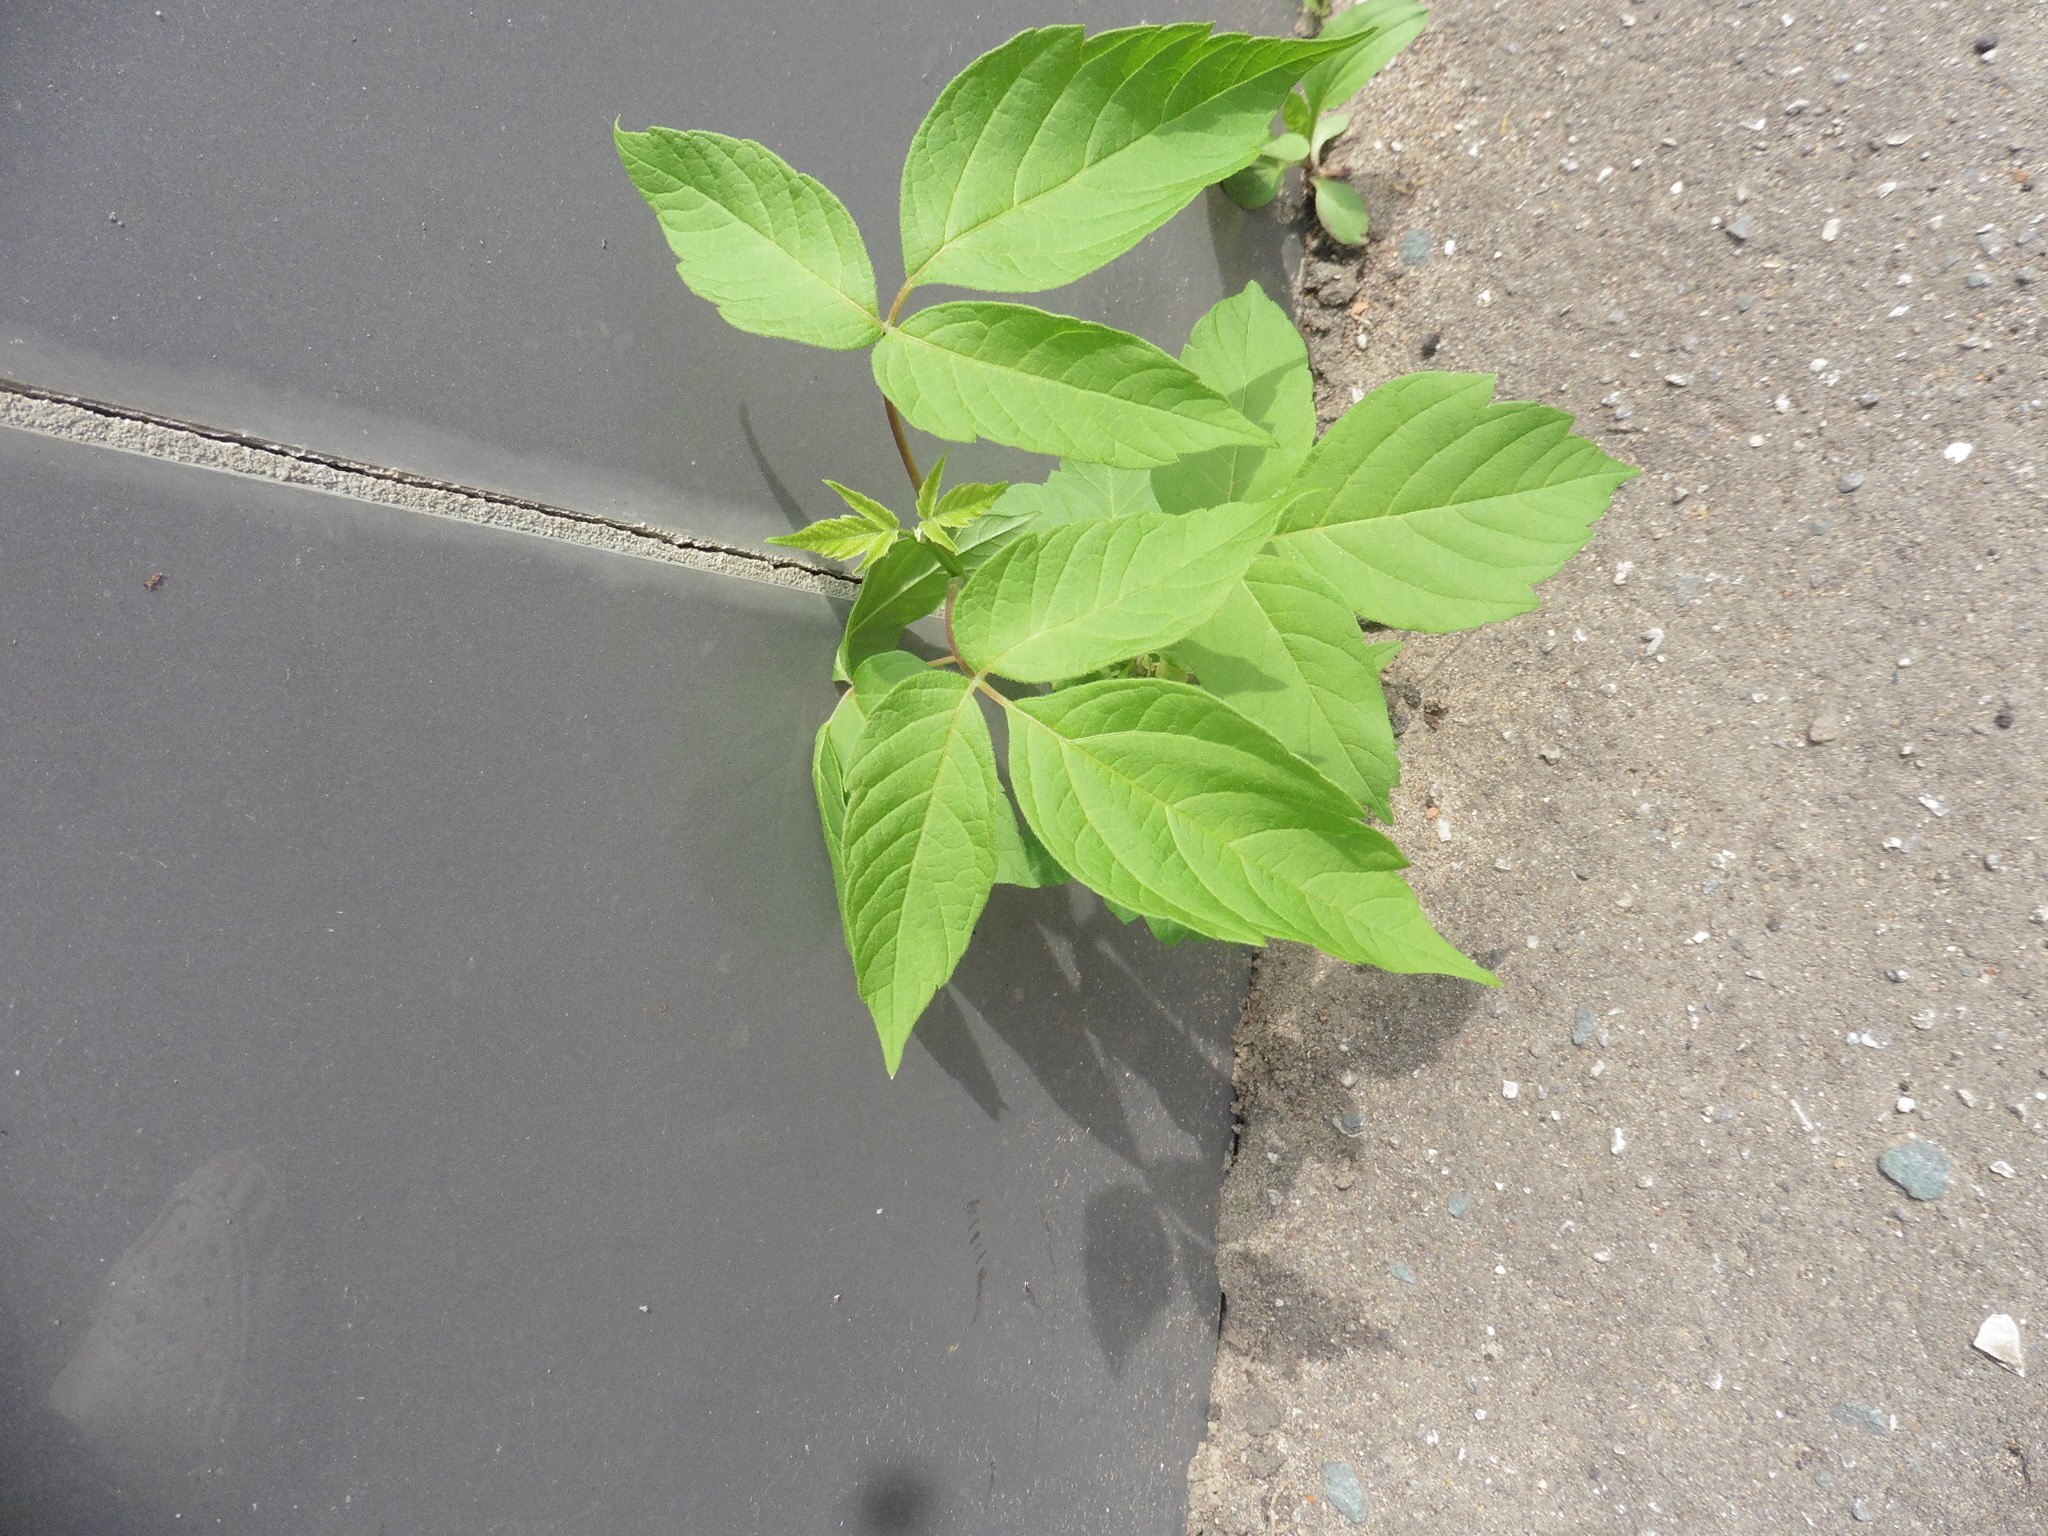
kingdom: Plantae
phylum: Tracheophyta
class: Magnoliopsida
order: Sapindales
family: Sapindaceae
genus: Acer
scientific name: Acer negundo
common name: Ashleaf maple
